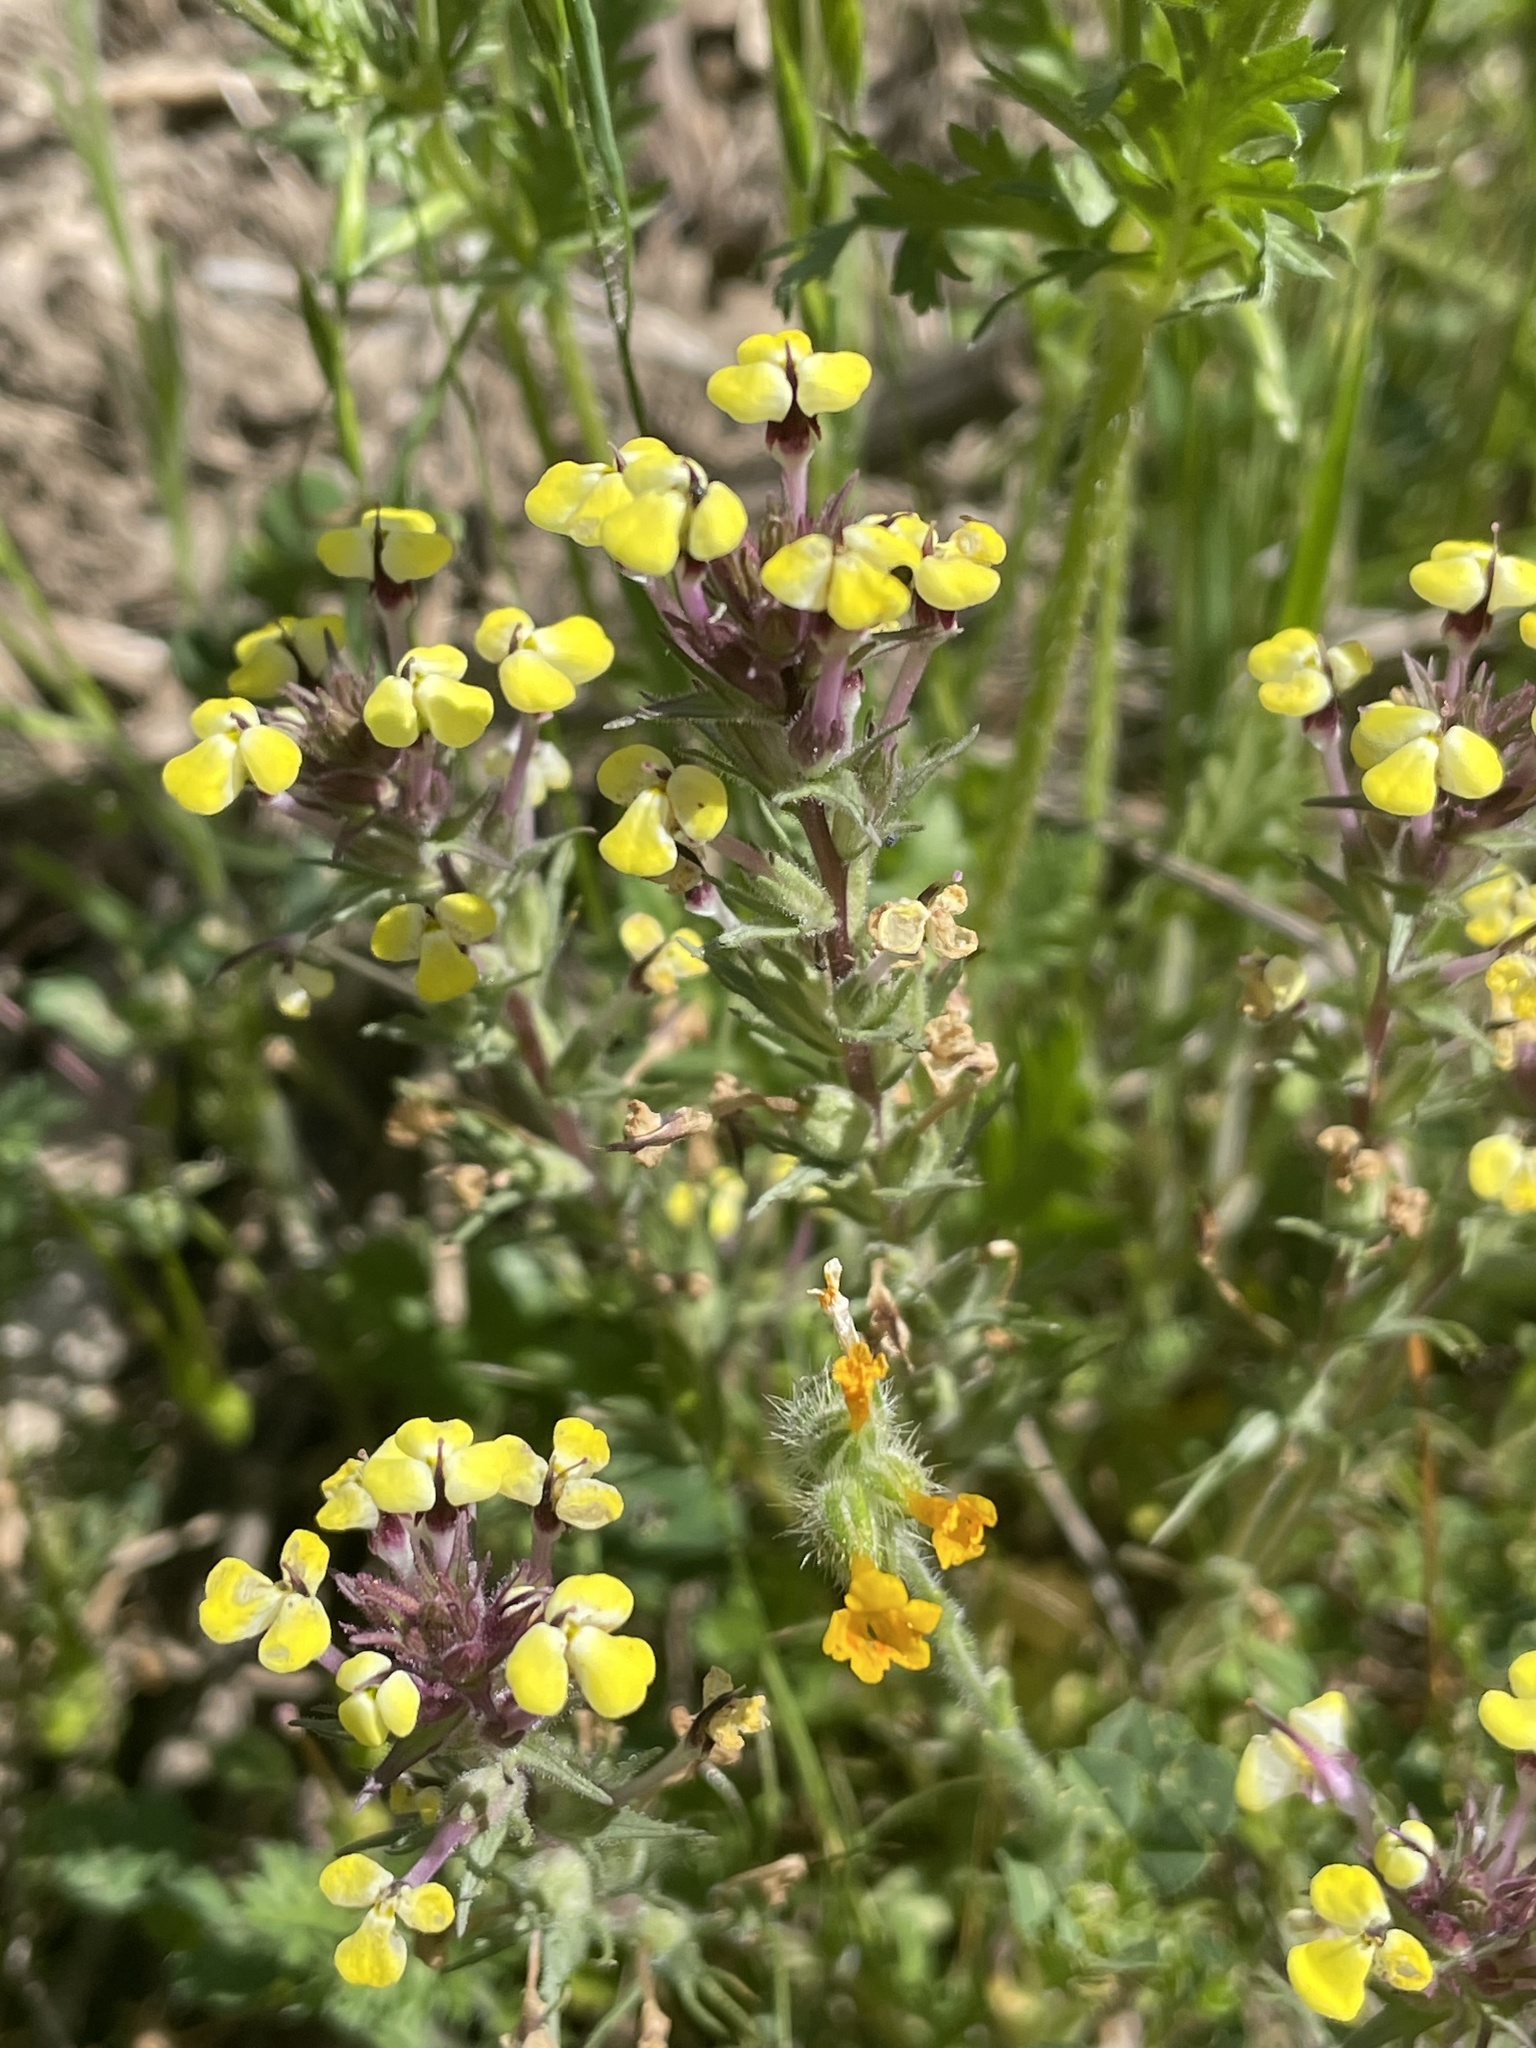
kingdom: Plantae
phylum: Tracheophyta
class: Magnoliopsida
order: Lamiales
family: Orobanchaceae
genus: Triphysaria
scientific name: Triphysaria eriantha
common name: Johnny-tuck
